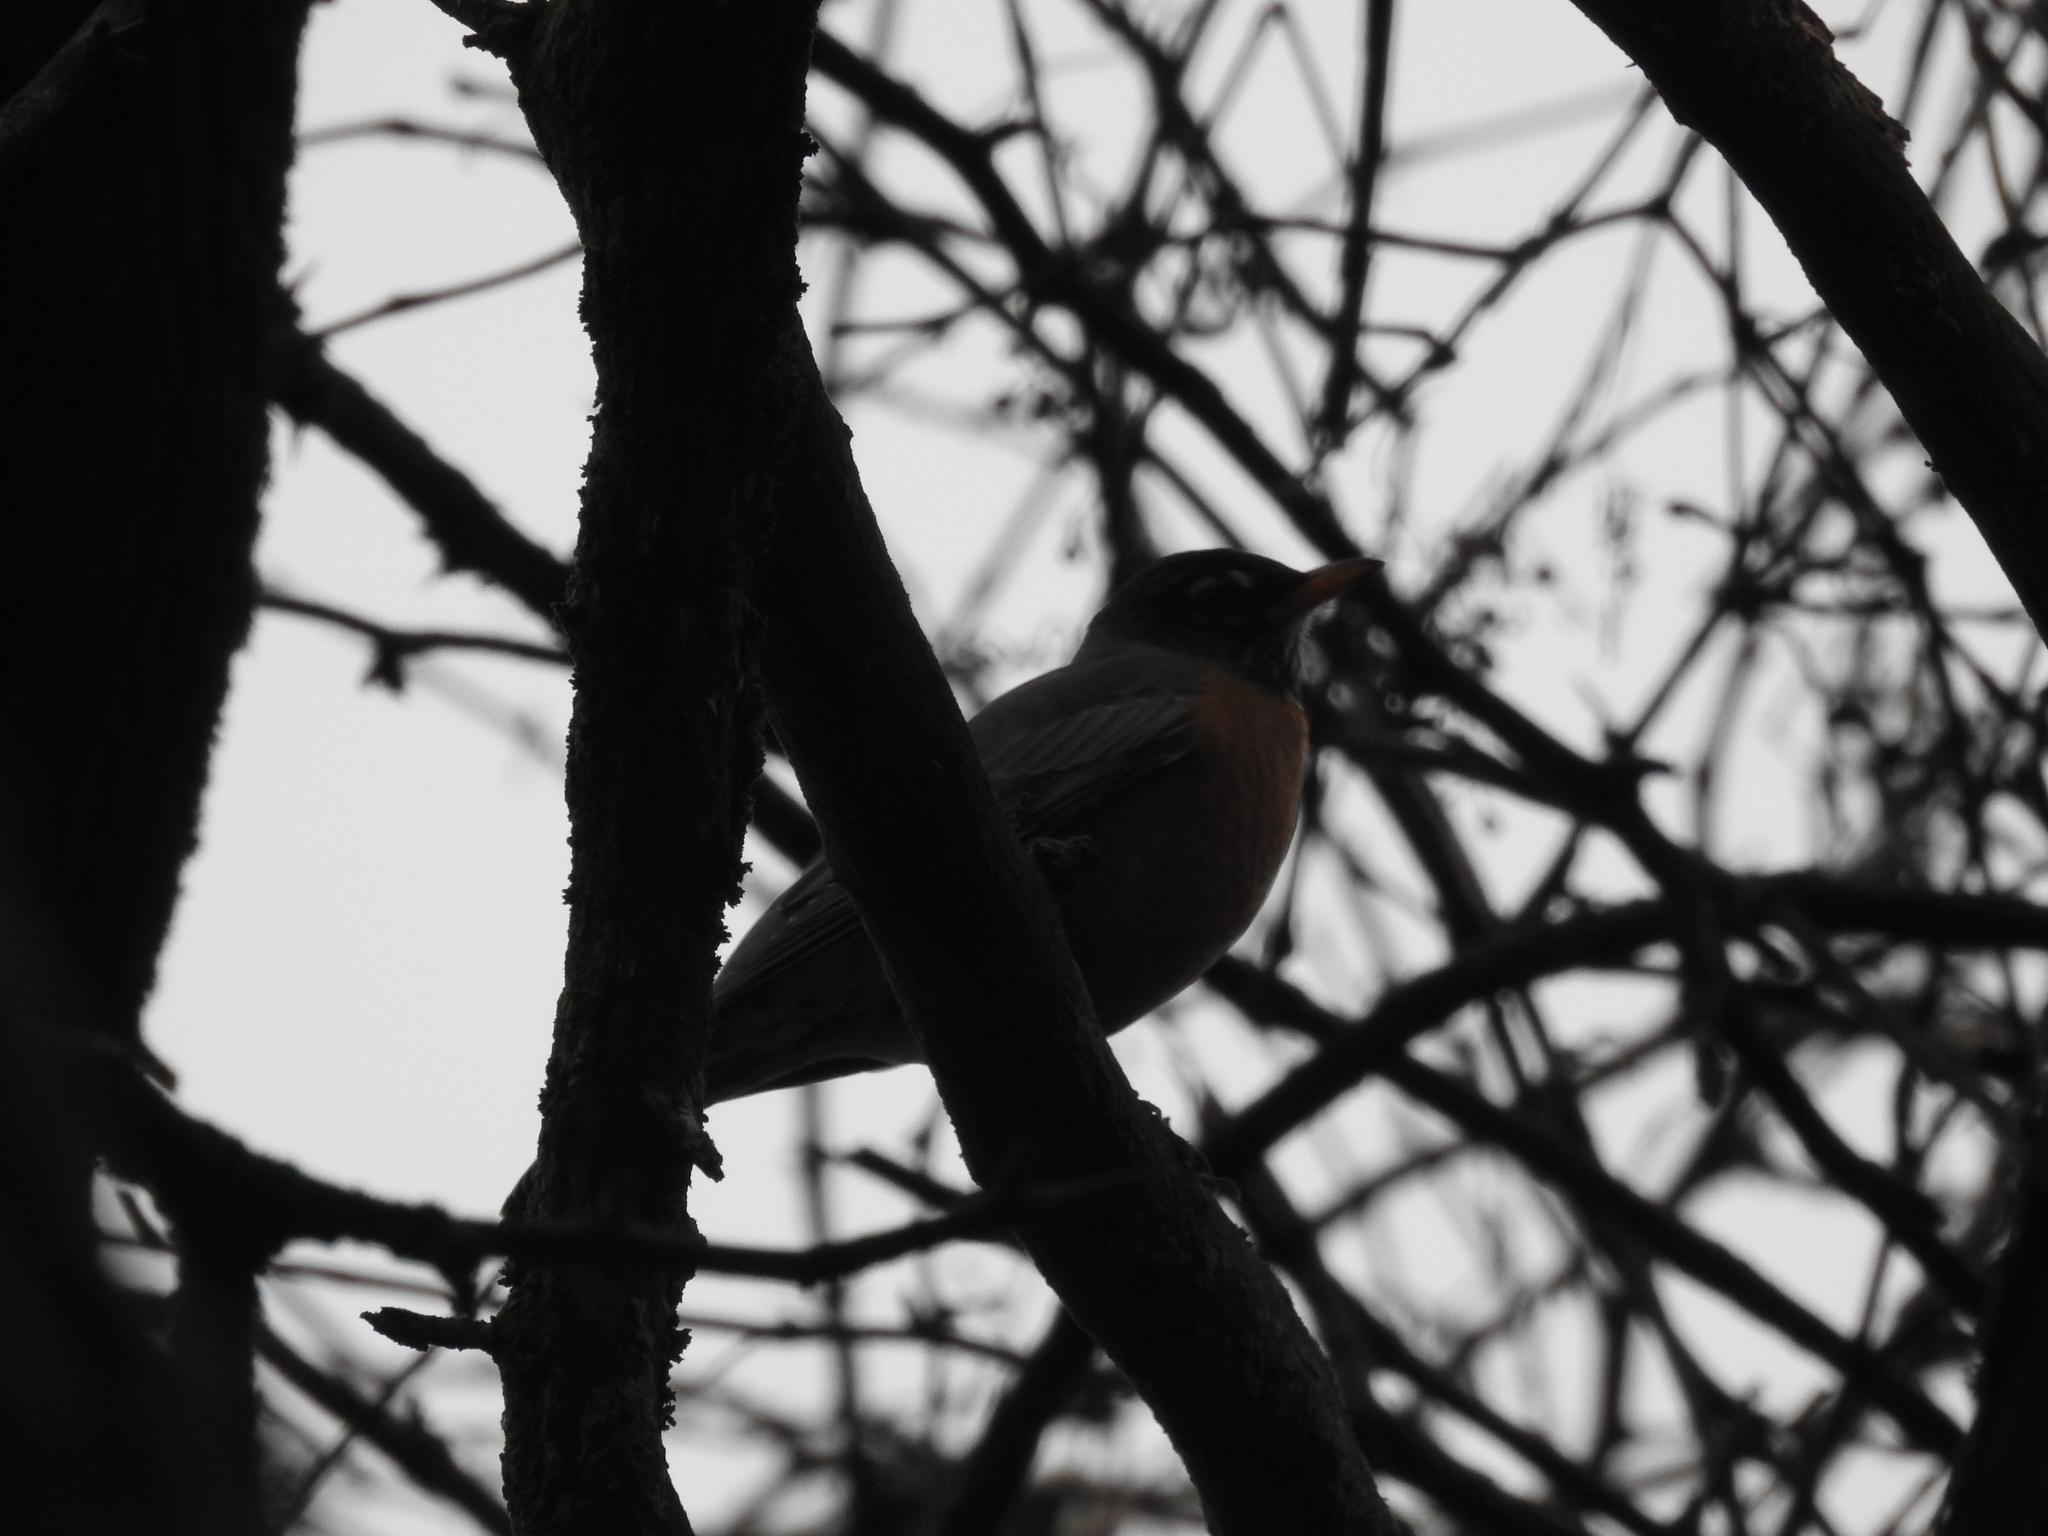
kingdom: Animalia
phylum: Chordata
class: Aves
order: Passeriformes
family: Turdidae
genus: Turdus
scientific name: Turdus migratorius
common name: American robin
